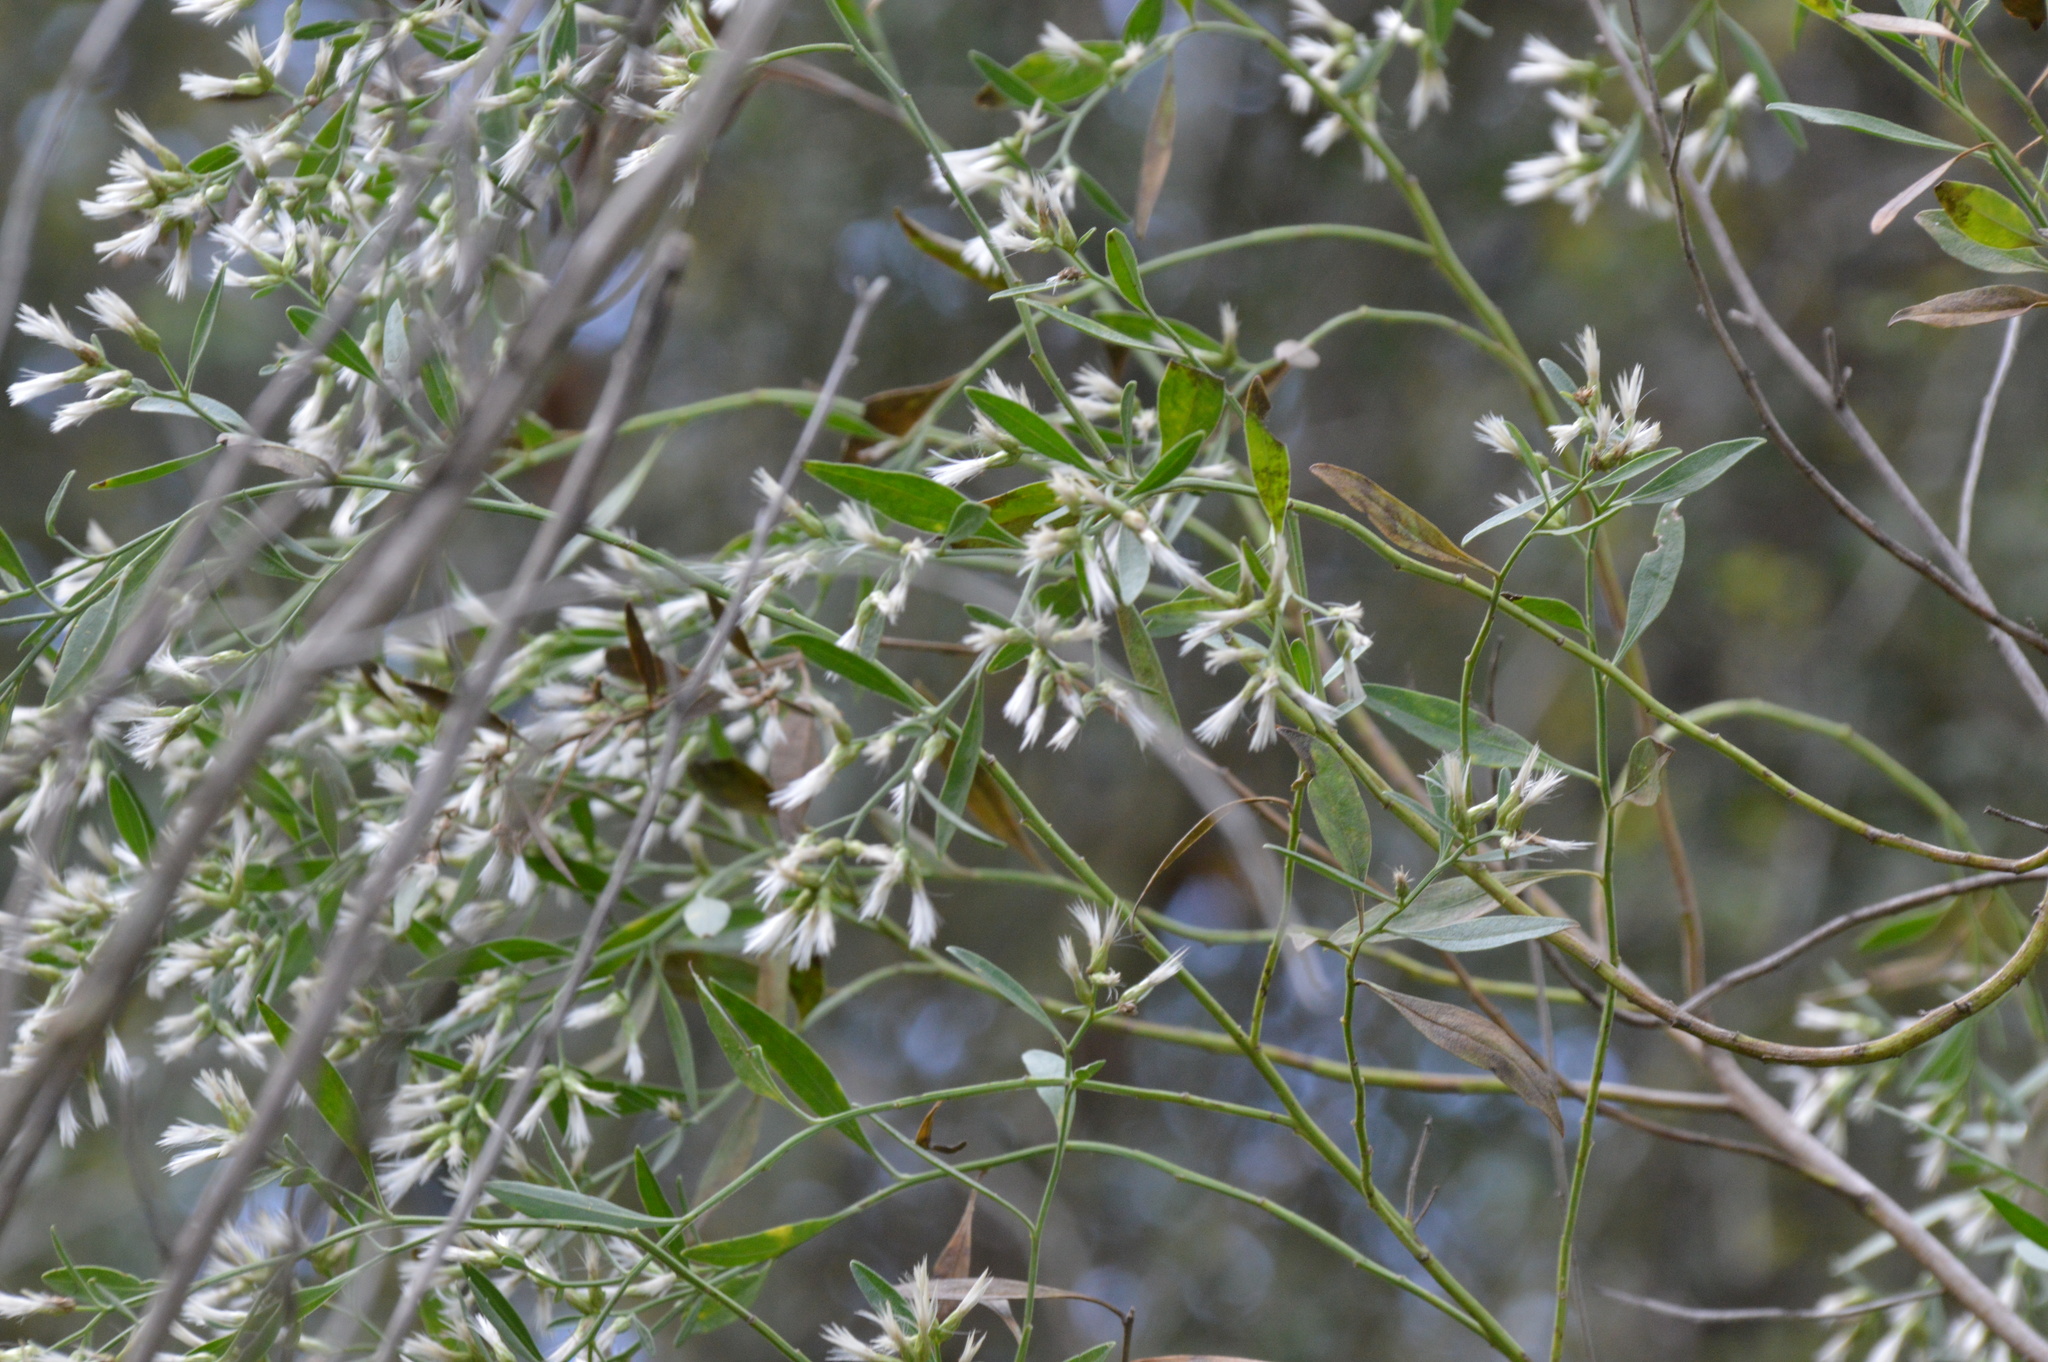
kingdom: Plantae
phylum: Tracheophyta
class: Magnoliopsida
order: Asterales
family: Asteraceae
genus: Baccharis
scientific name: Baccharis halimifolia
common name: Eastern baccharis
